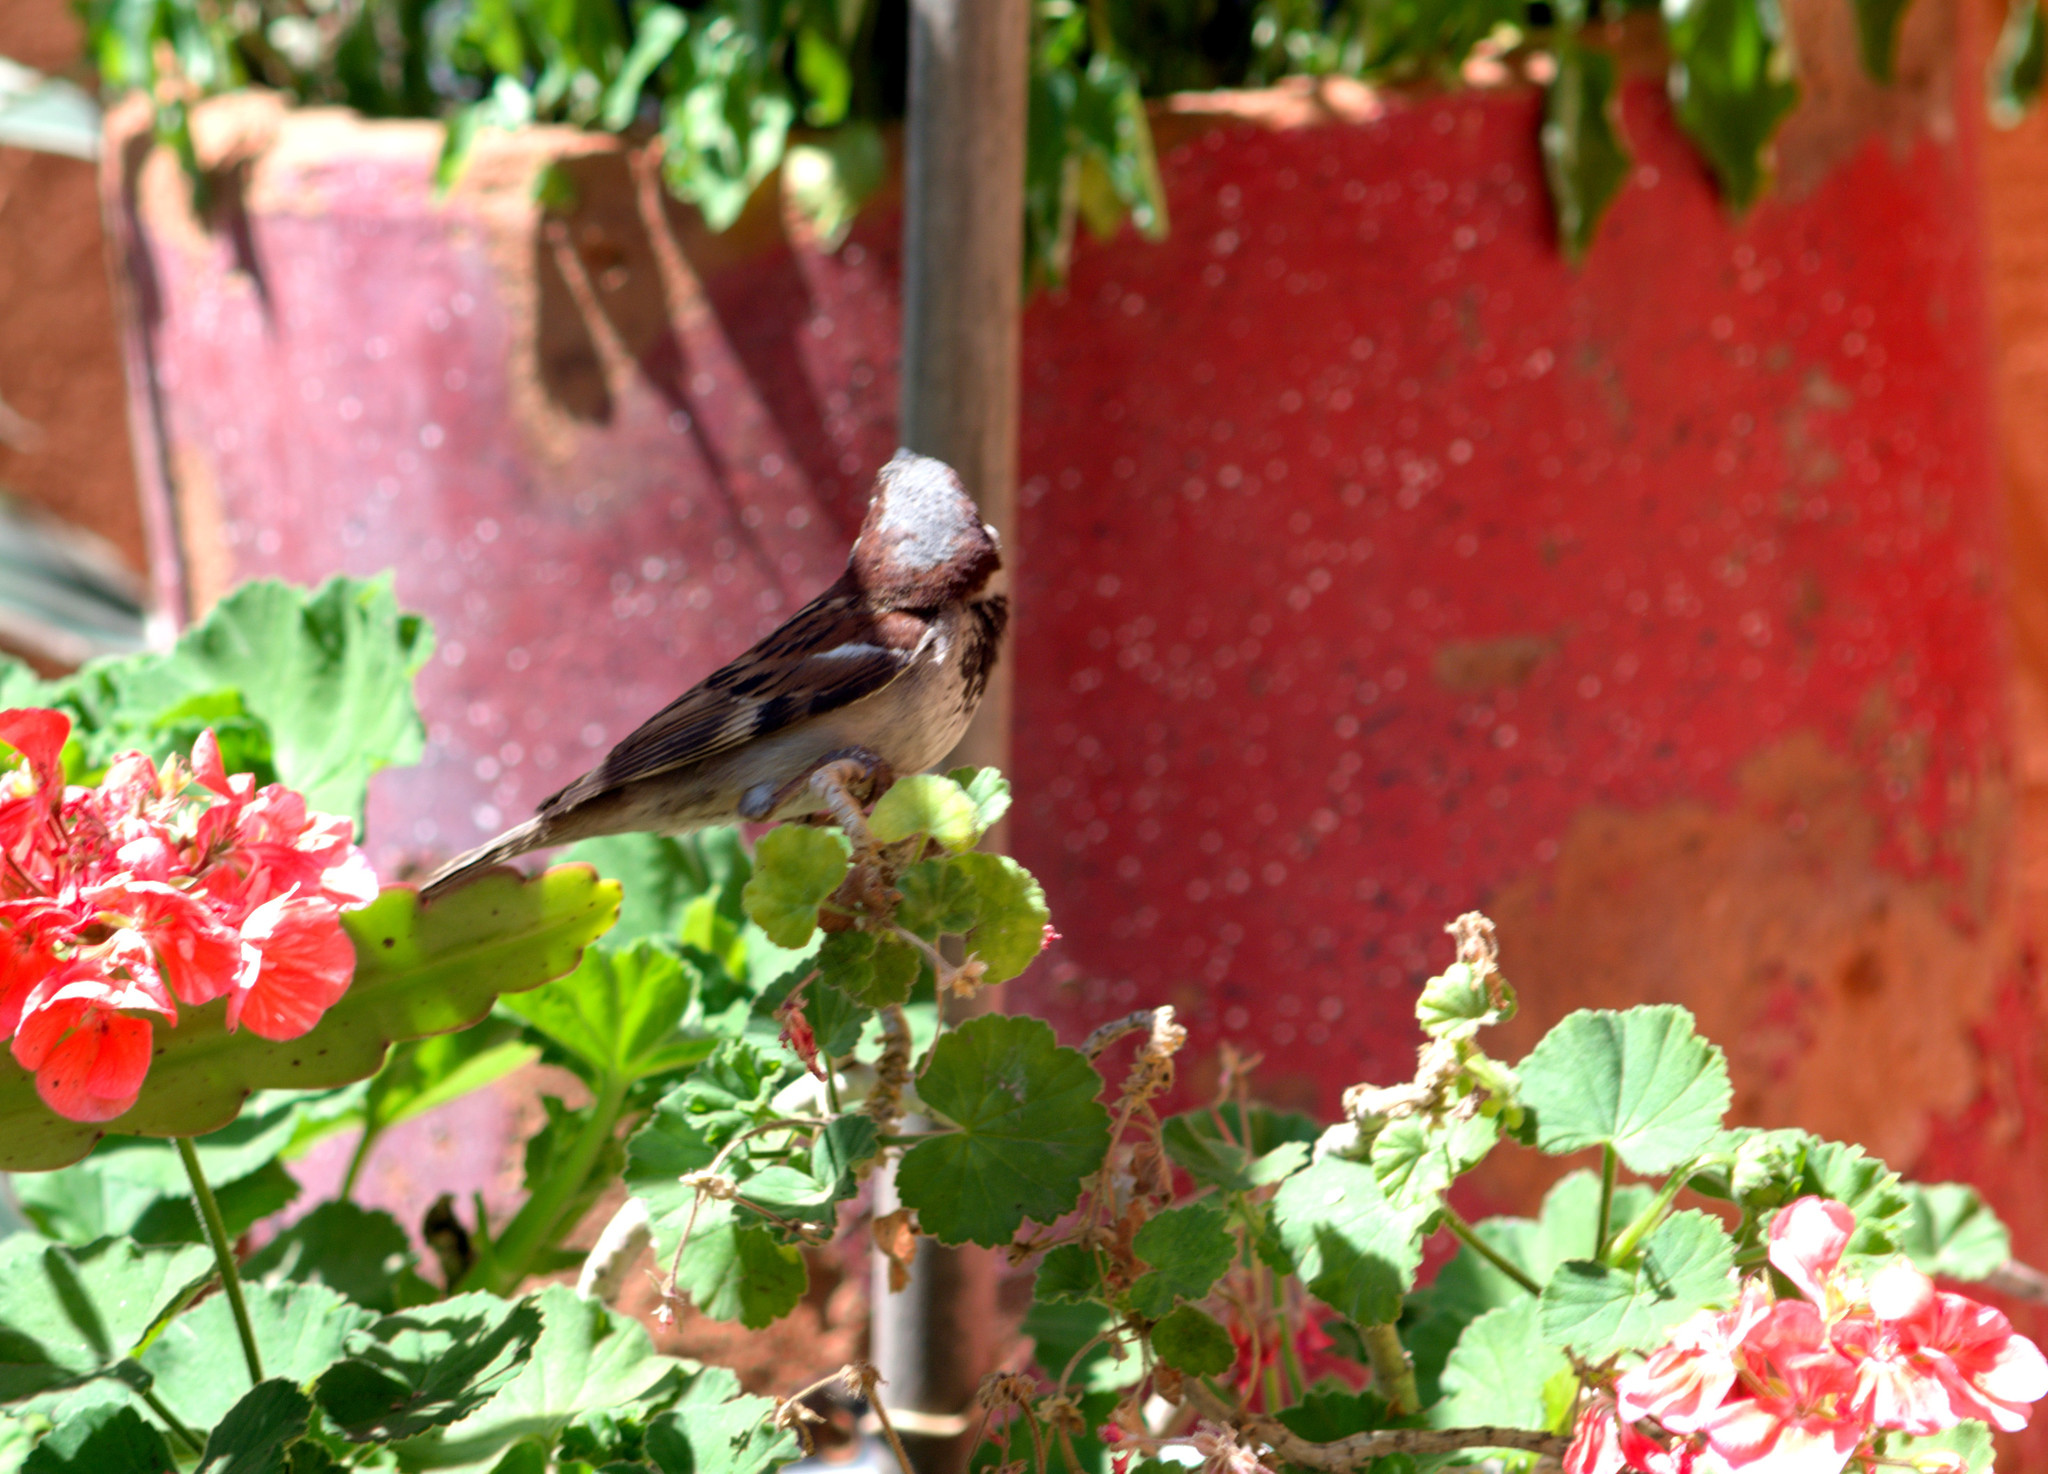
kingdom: Animalia
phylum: Chordata
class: Aves
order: Passeriformes
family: Passeridae
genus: Passer
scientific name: Passer domesticus
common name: House sparrow
